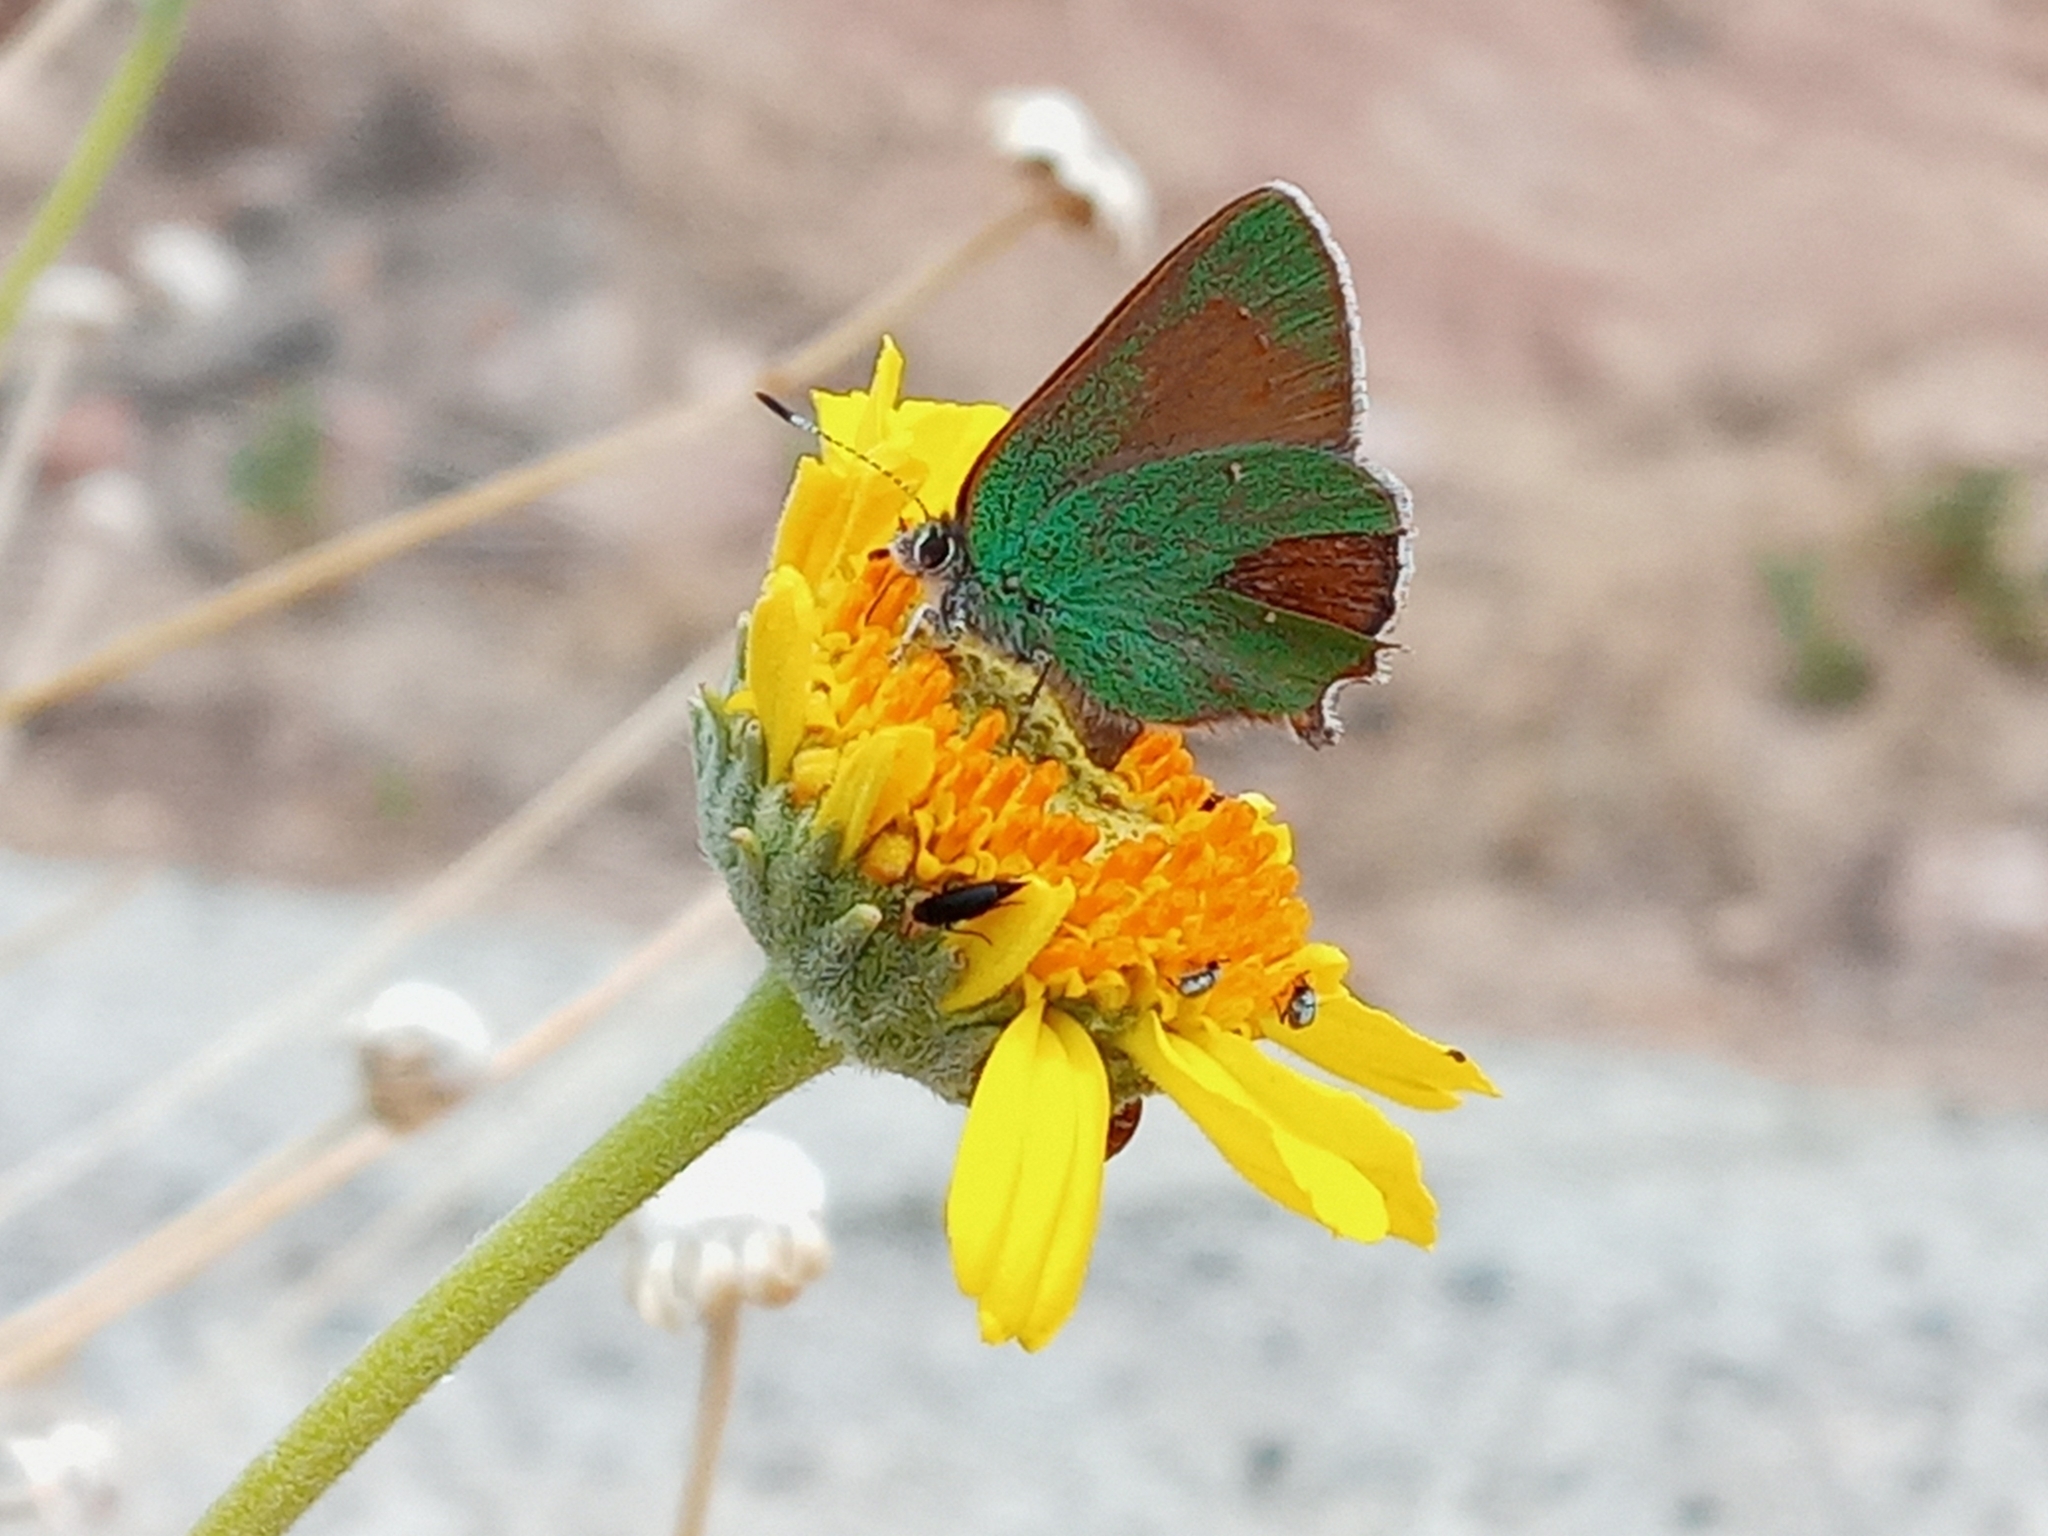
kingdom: Animalia
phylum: Arthropoda
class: Insecta
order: Lepidoptera
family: Lycaenidae
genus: Callophrys
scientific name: Callophrys dumetorum
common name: Bramble hairstreak
